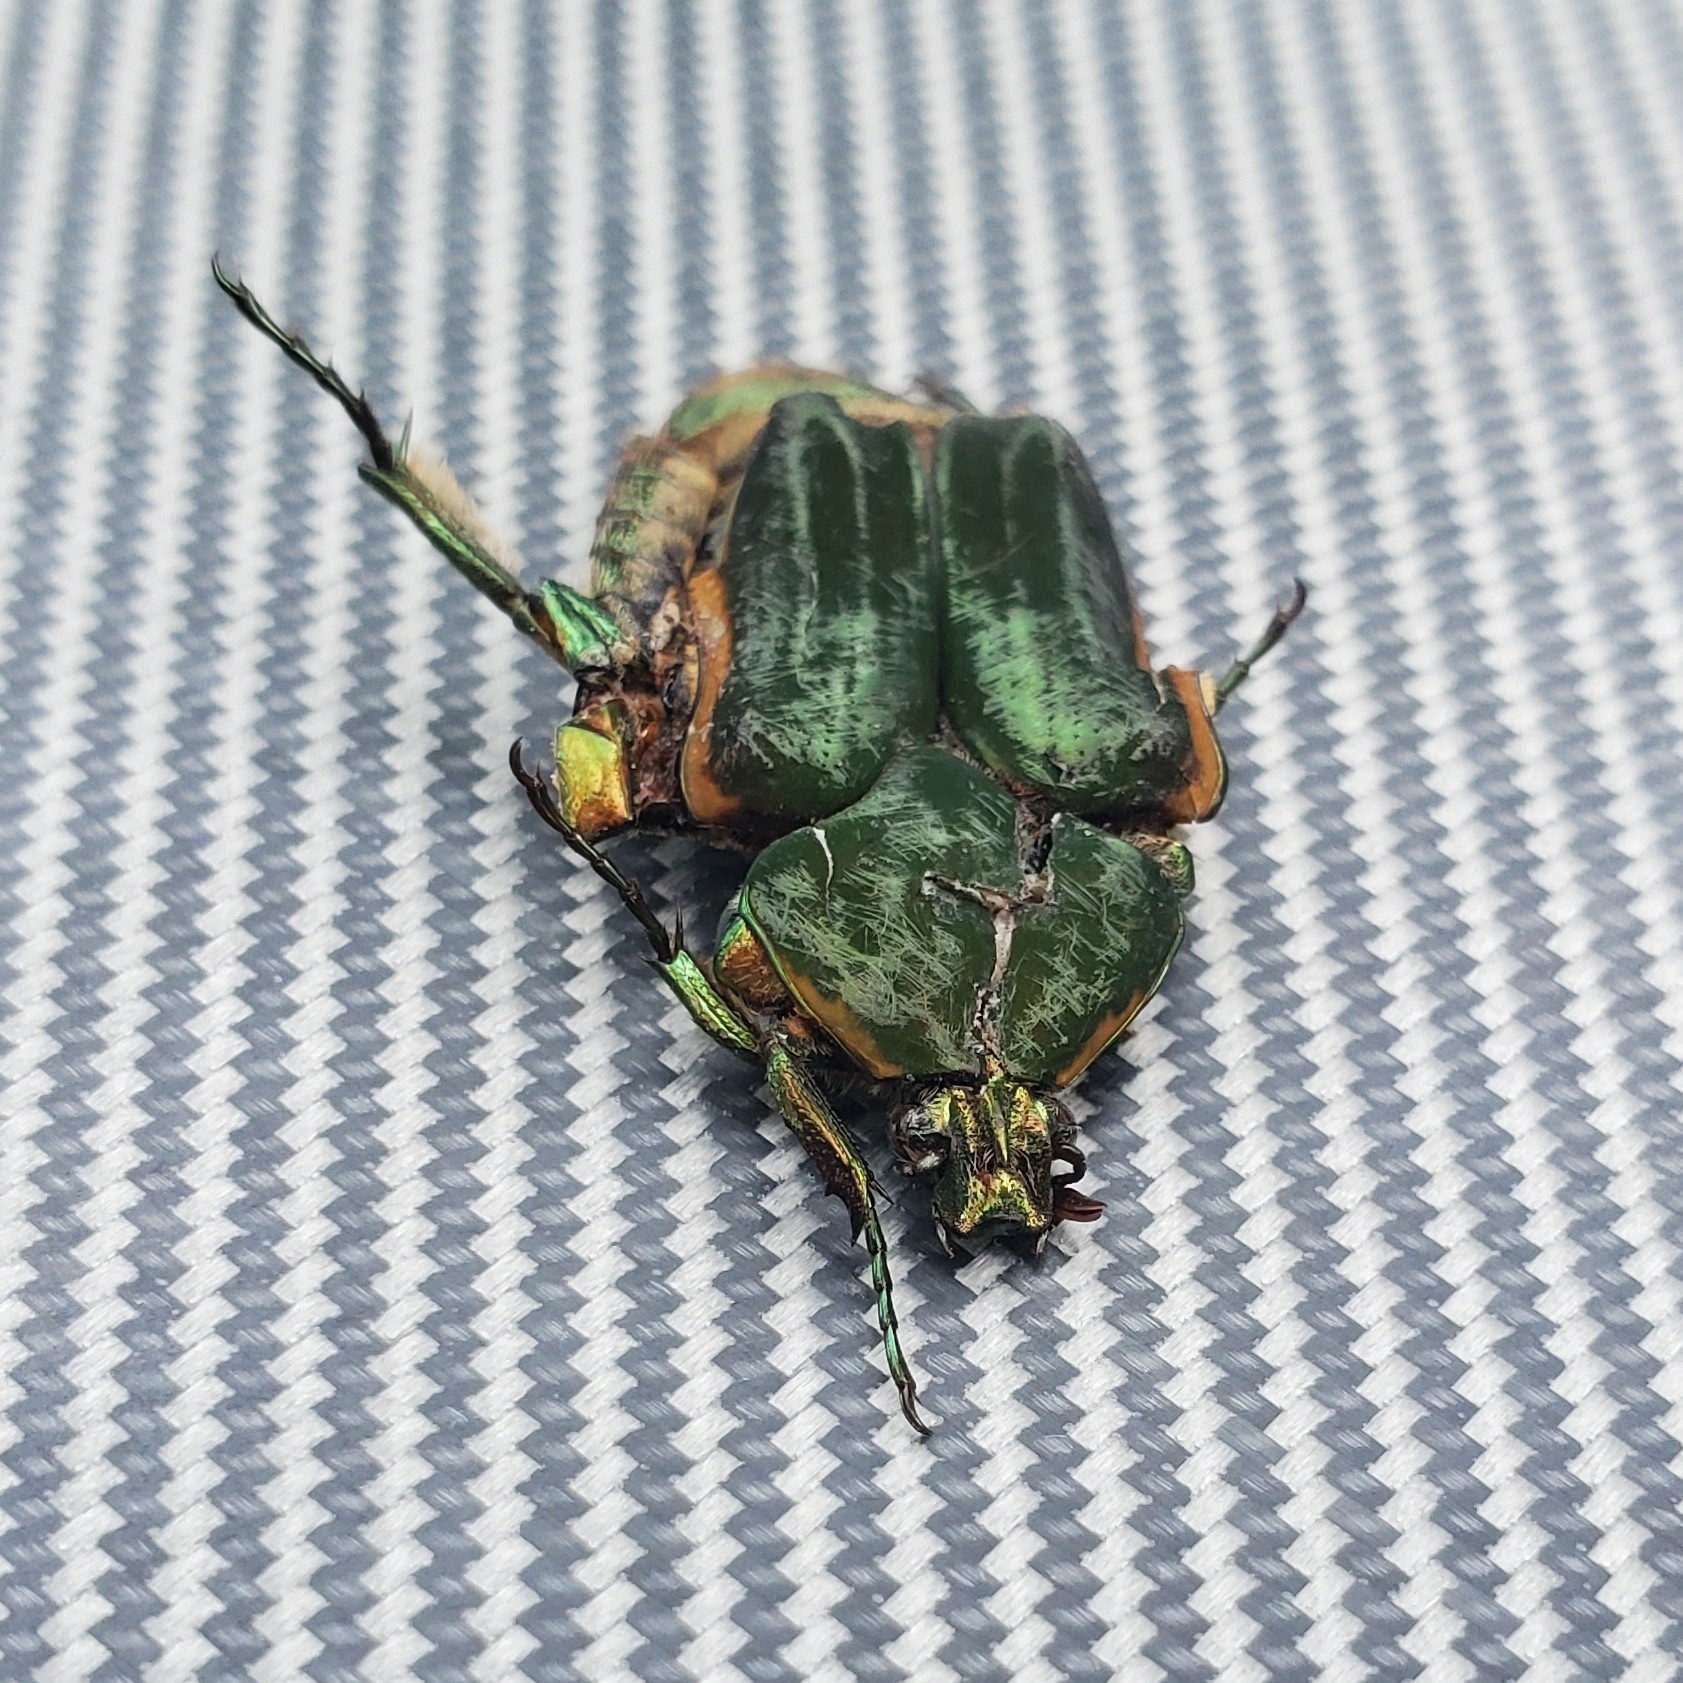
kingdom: Animalia
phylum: Arthropoda
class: Insecta
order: Coleoptera
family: Scarabaeidae
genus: Cotinis
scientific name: Cotinis nitida
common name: Common green june beetle
